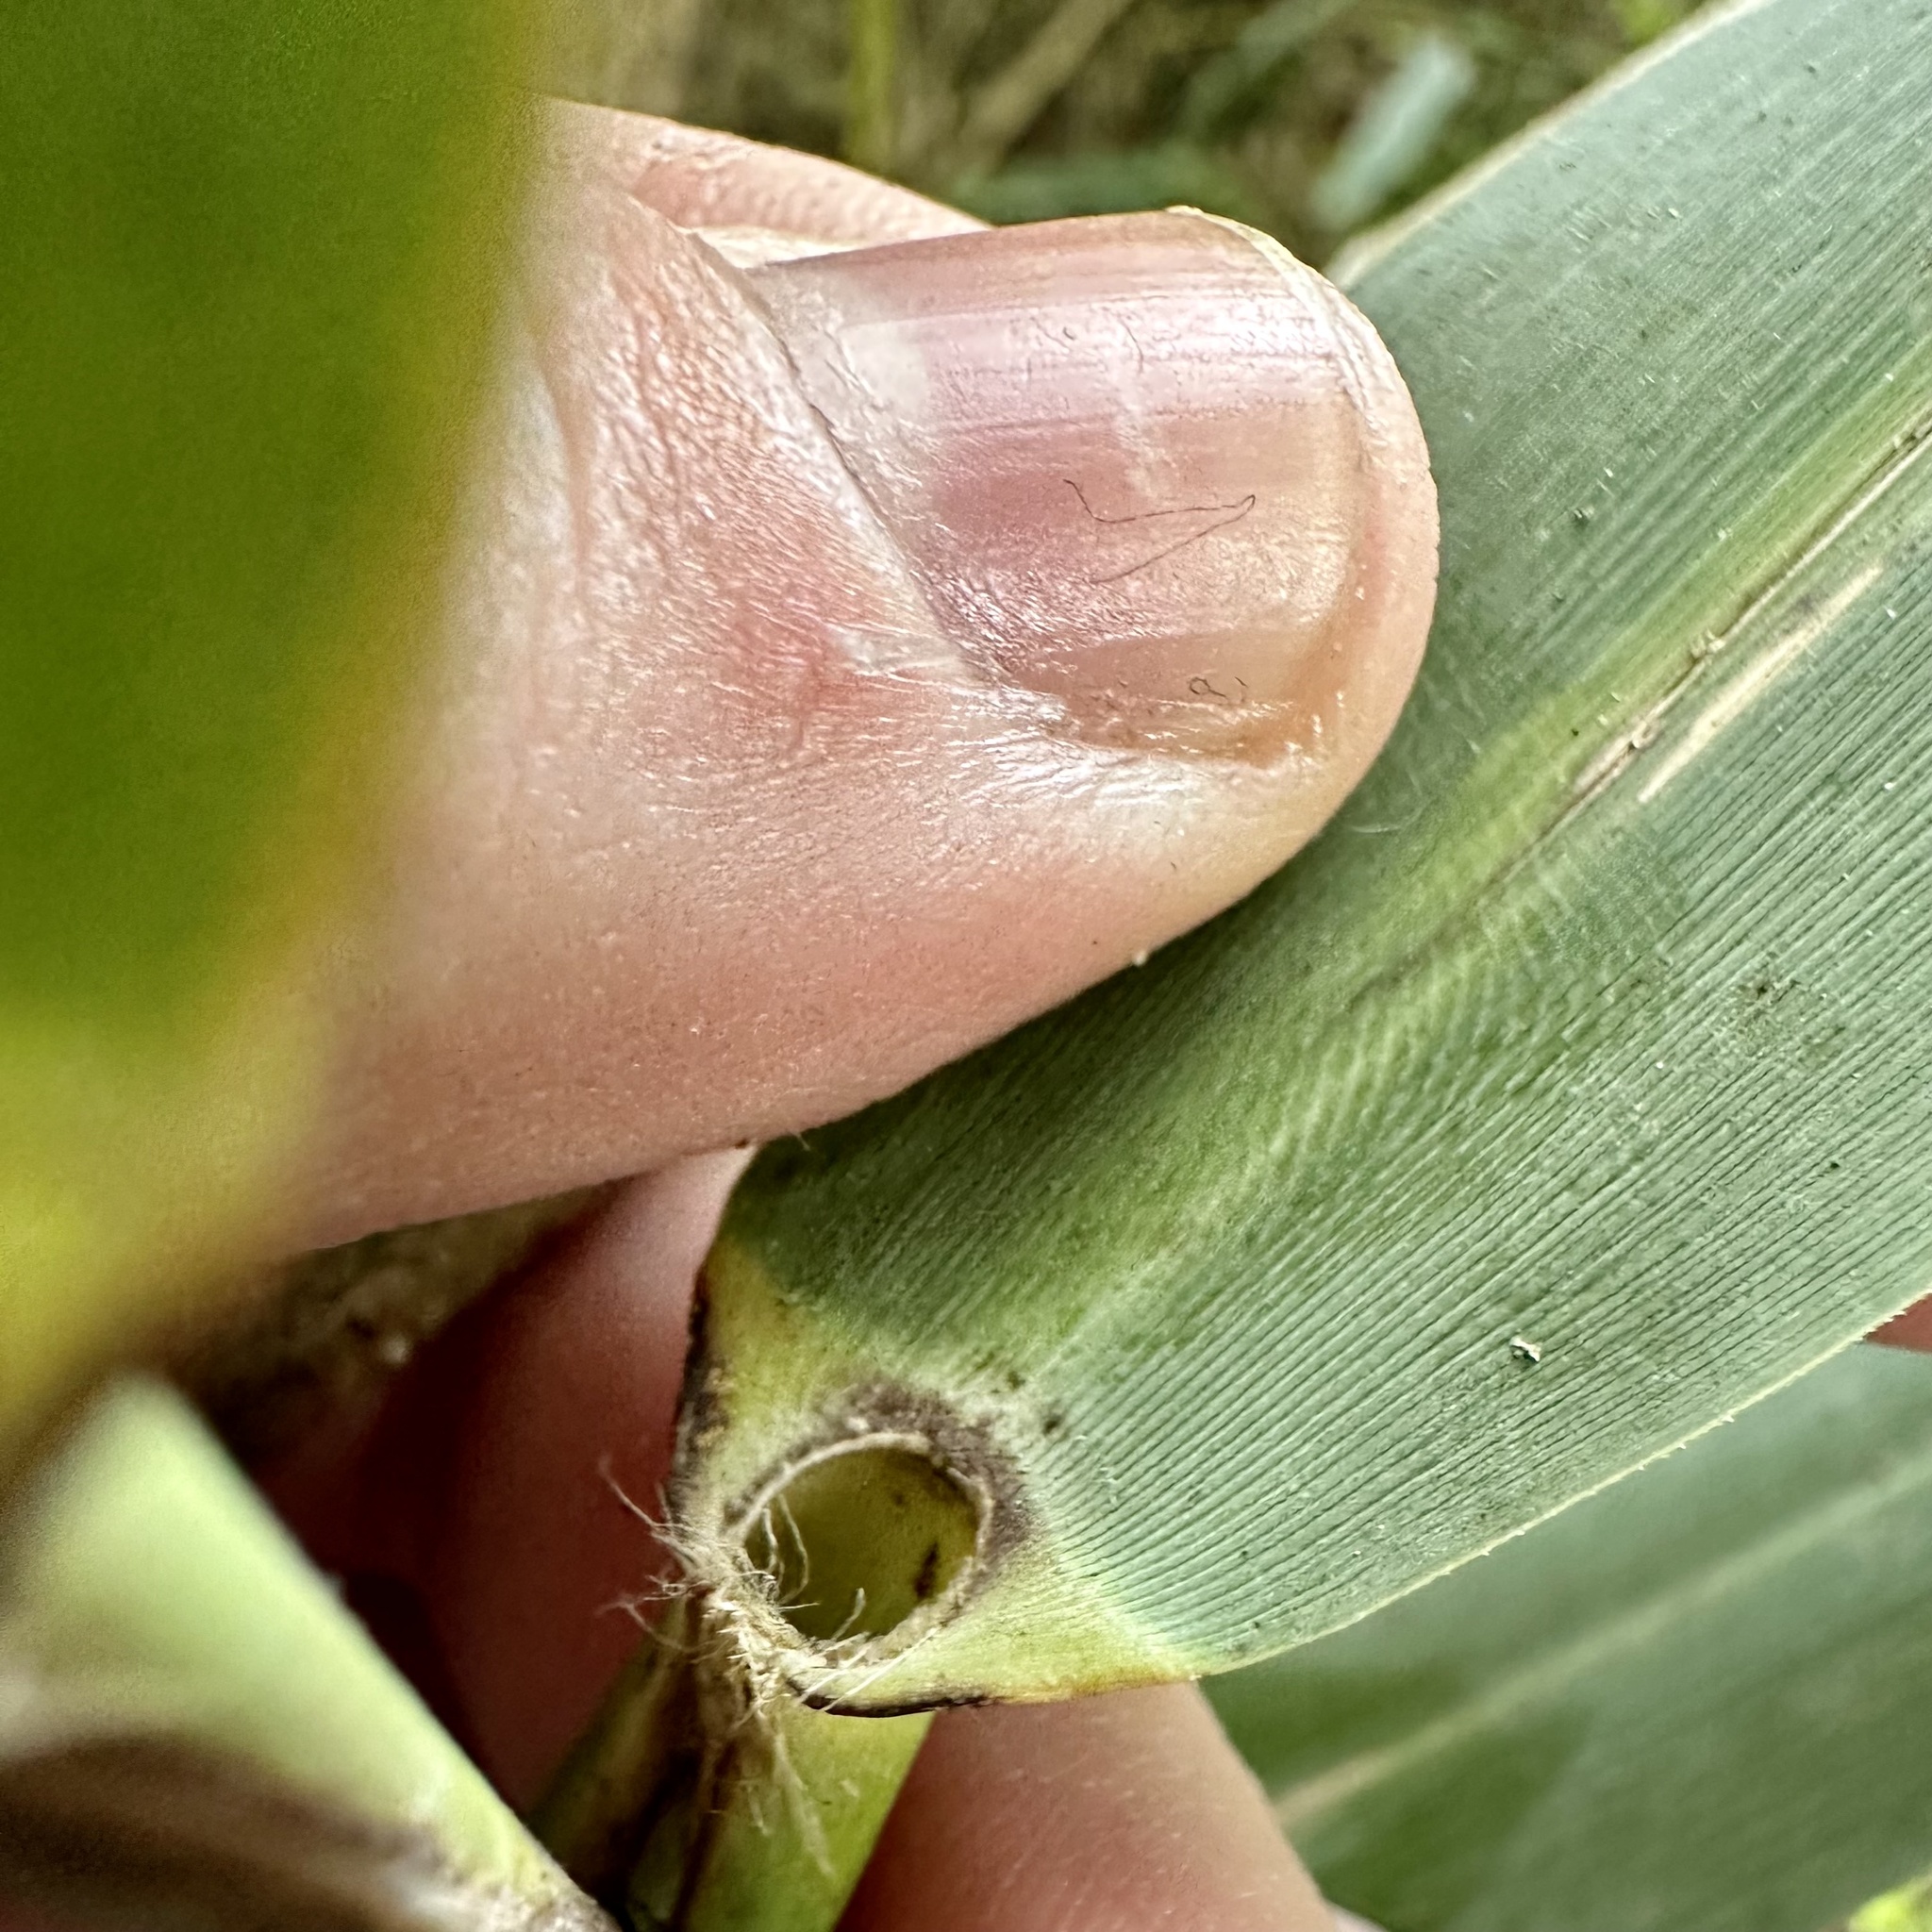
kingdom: Plantae
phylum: Tracheophyta
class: Liliopsida
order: Poales
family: Poaceae
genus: Phragmites
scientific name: Phragmites australis
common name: Common reed
